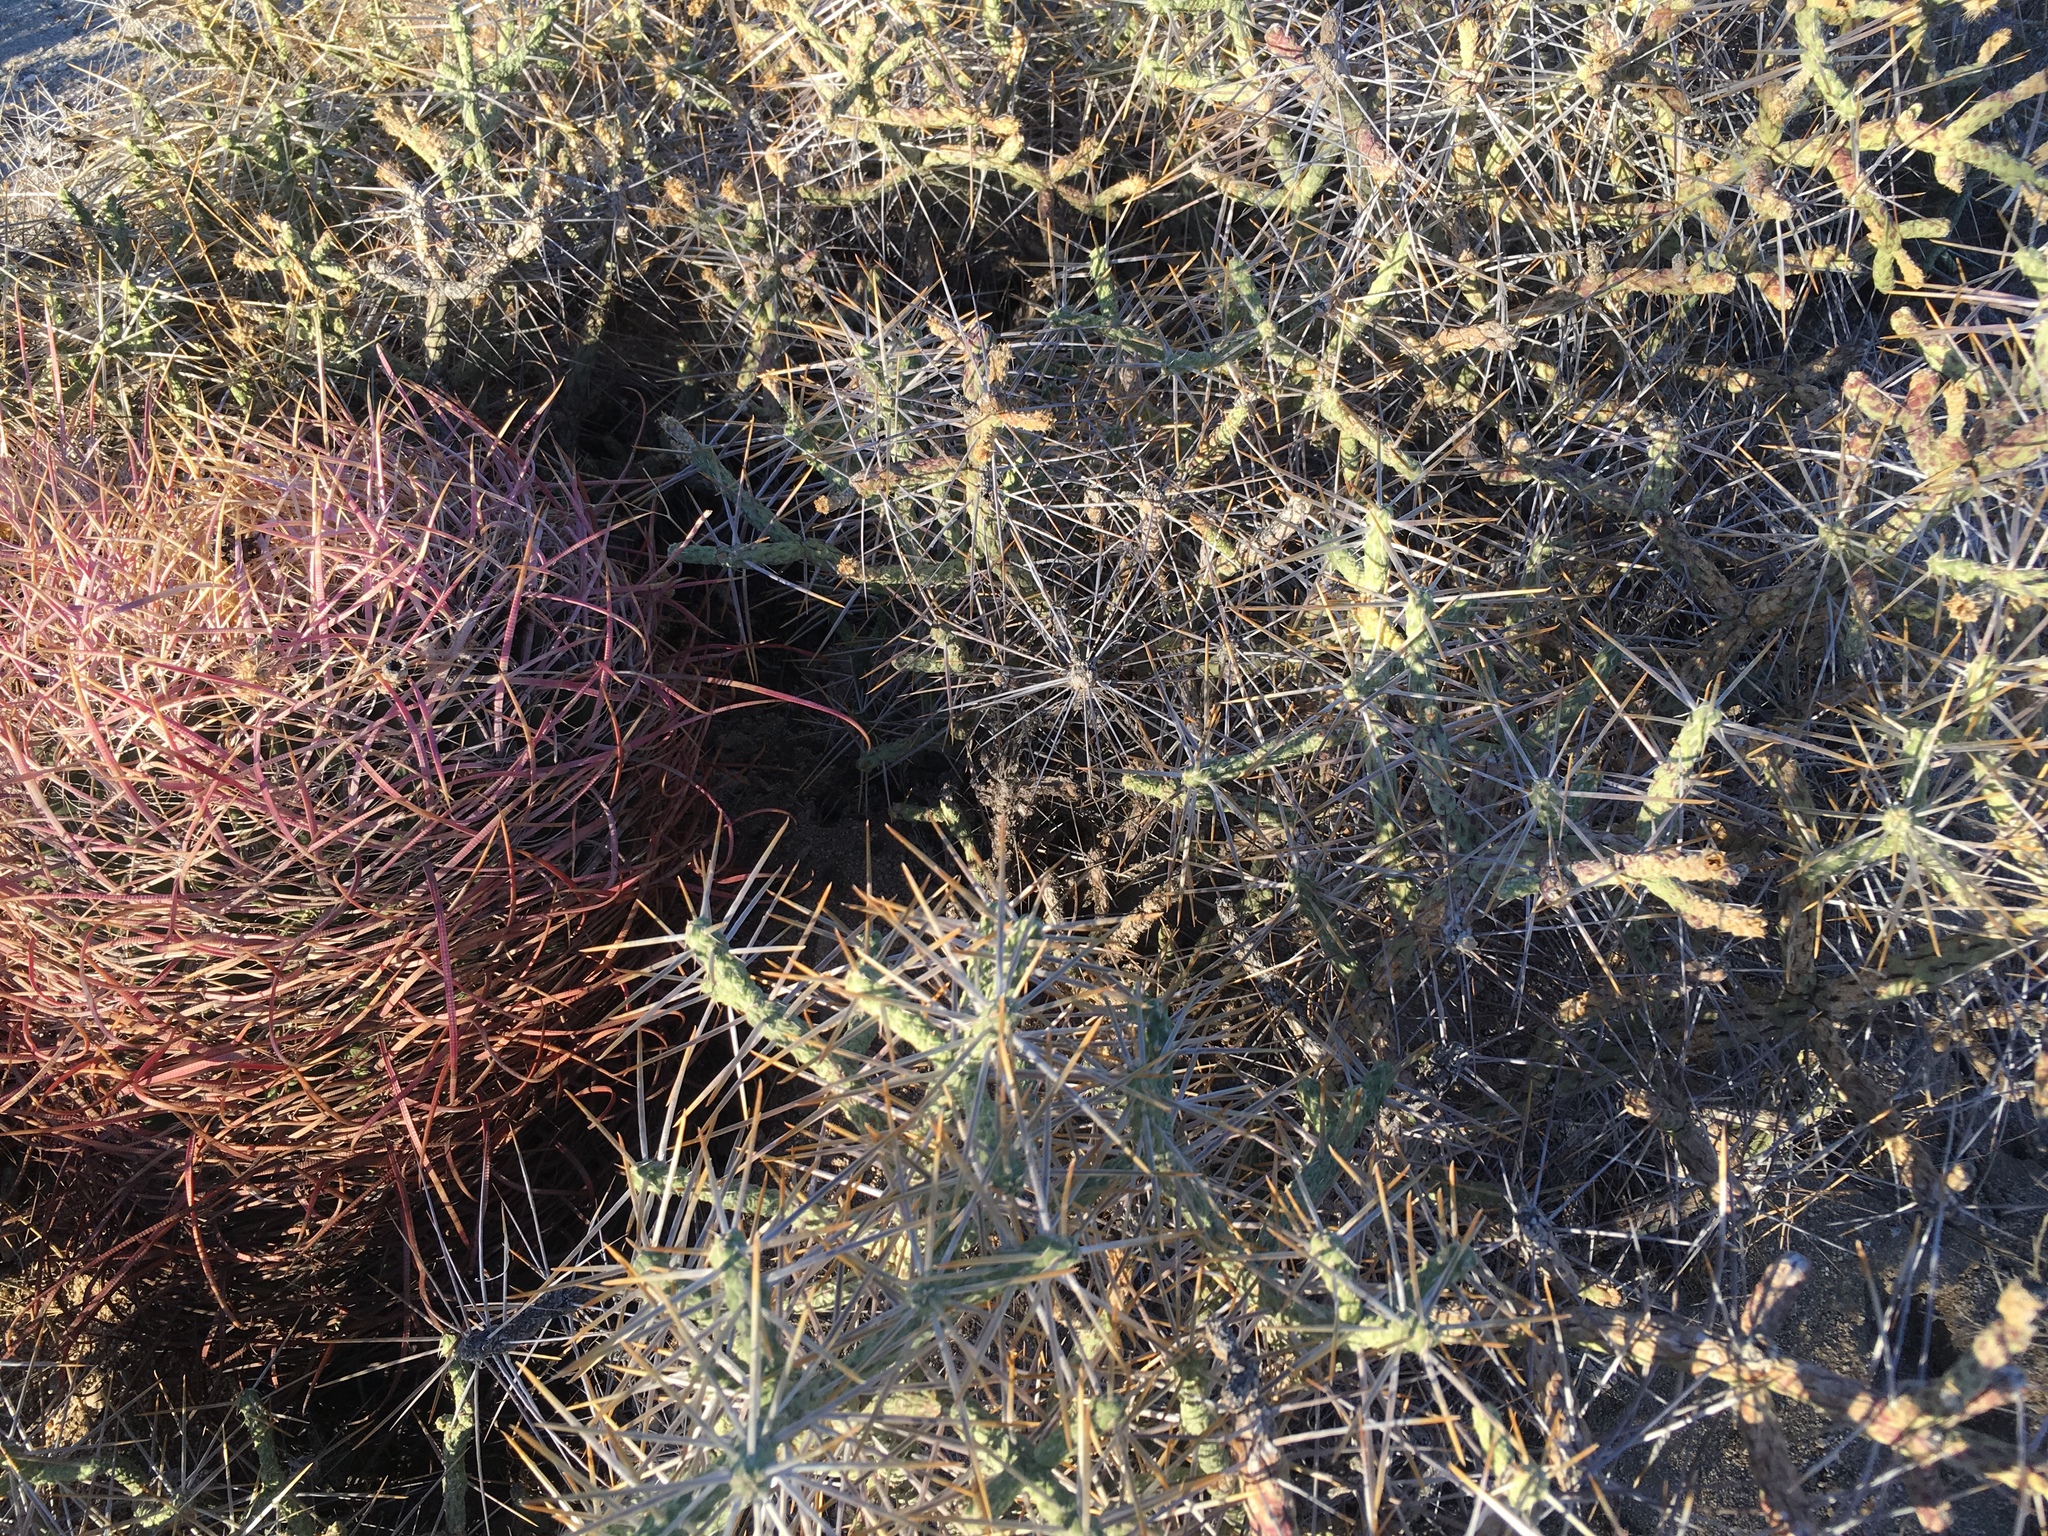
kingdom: Plantae
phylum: Tracheophyta
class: Magnoliopsida
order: Caryophyllales
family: Cactaceae
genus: Cylindropuntia
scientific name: Cylindropuntia ramosissima
